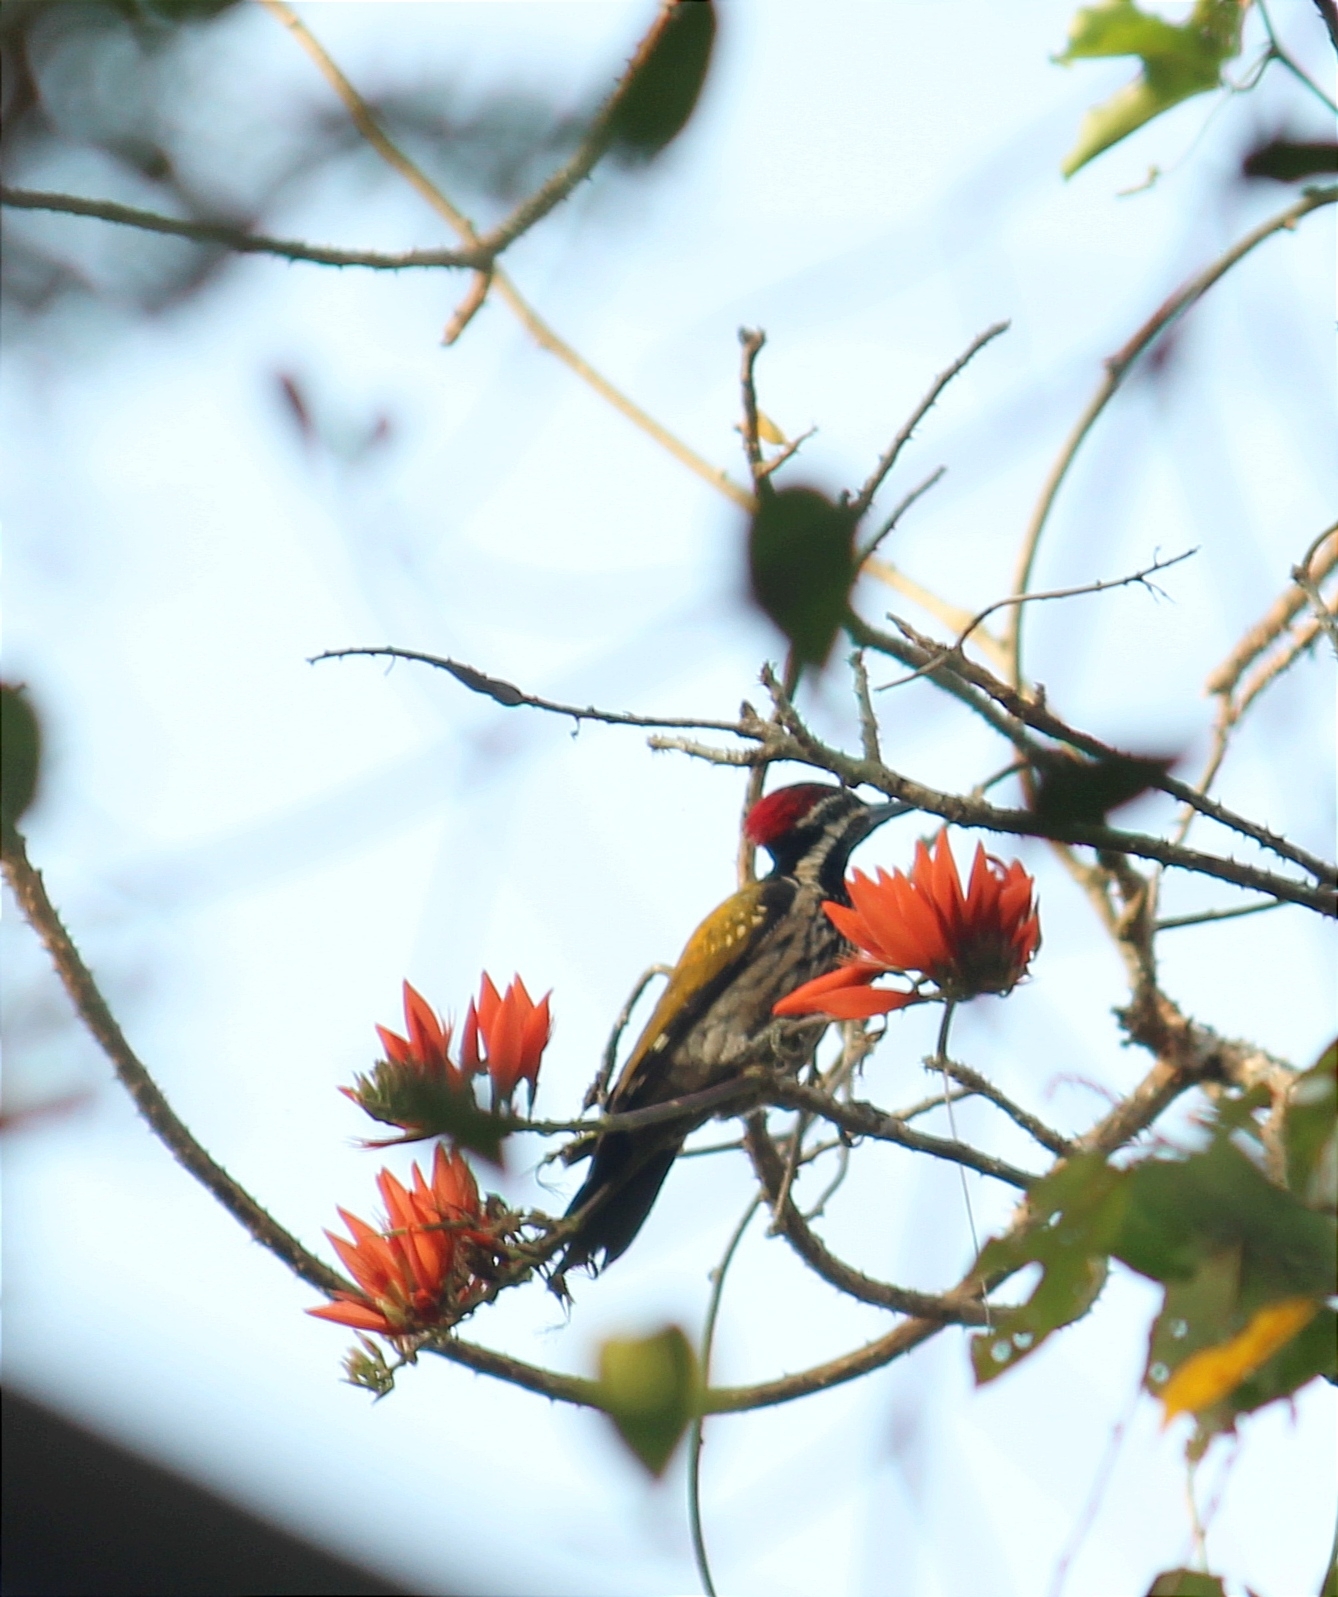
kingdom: Animalia
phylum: Chordata
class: Aves
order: Piciformes
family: Picidae
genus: Dinopium
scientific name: Dinopium benghalense
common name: Black-rumped flameback
